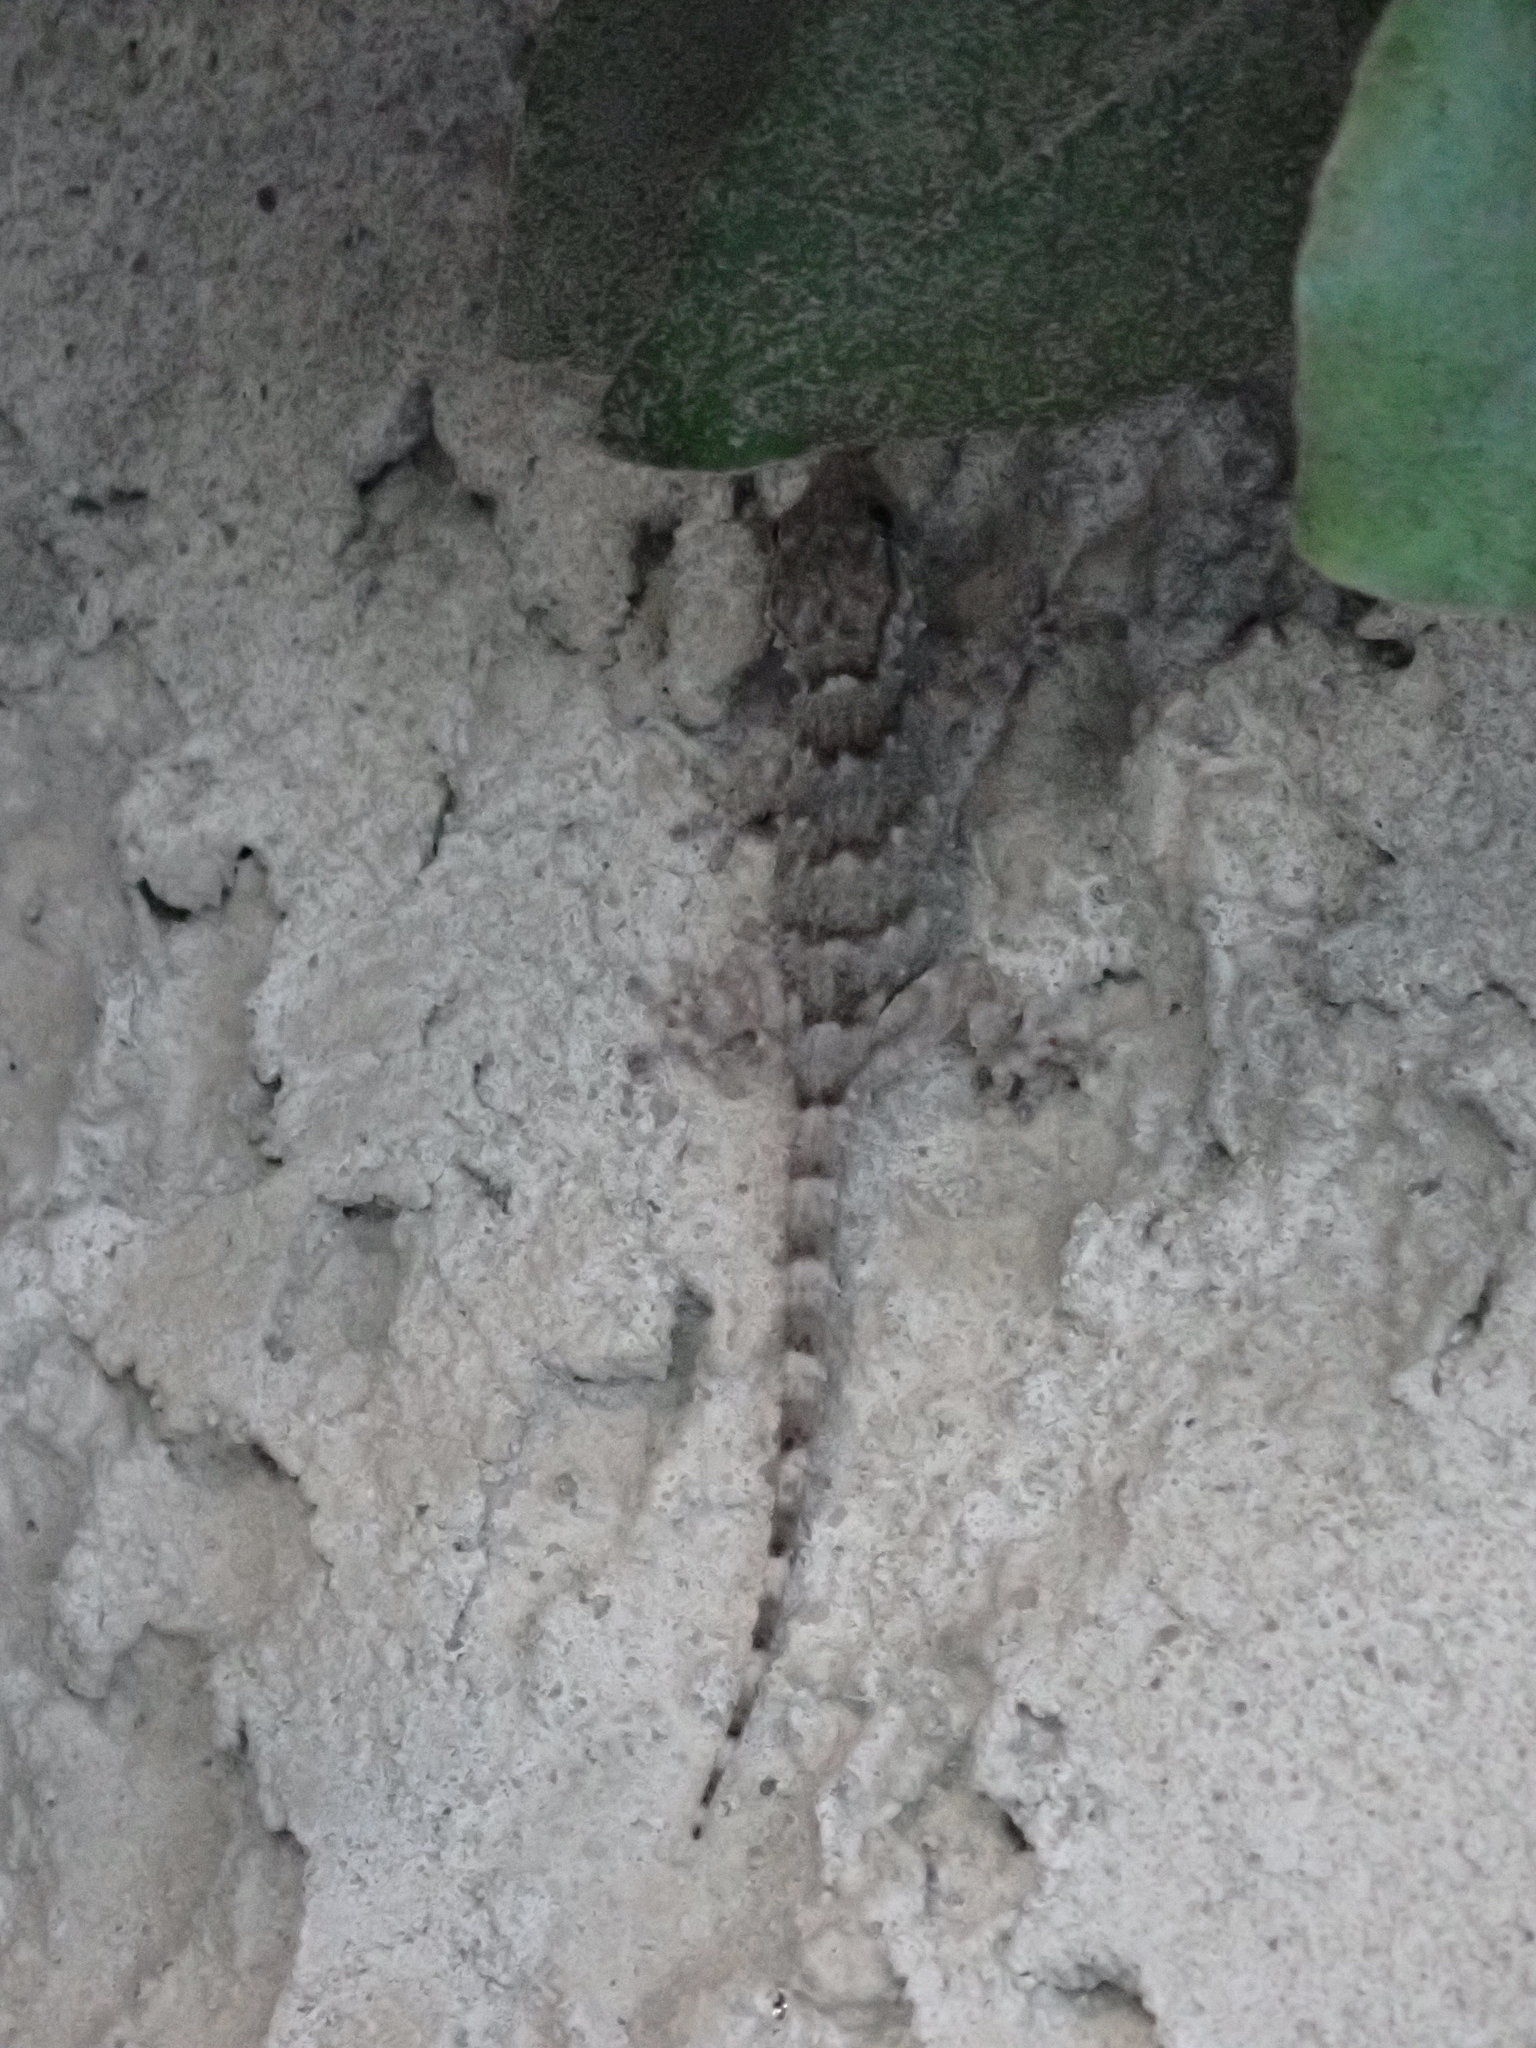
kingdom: Animalia
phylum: Chordata
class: Squamata
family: Phyllodactylidae
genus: Tarentola
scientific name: Tarentola mauritanica
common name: Moorish gecko
